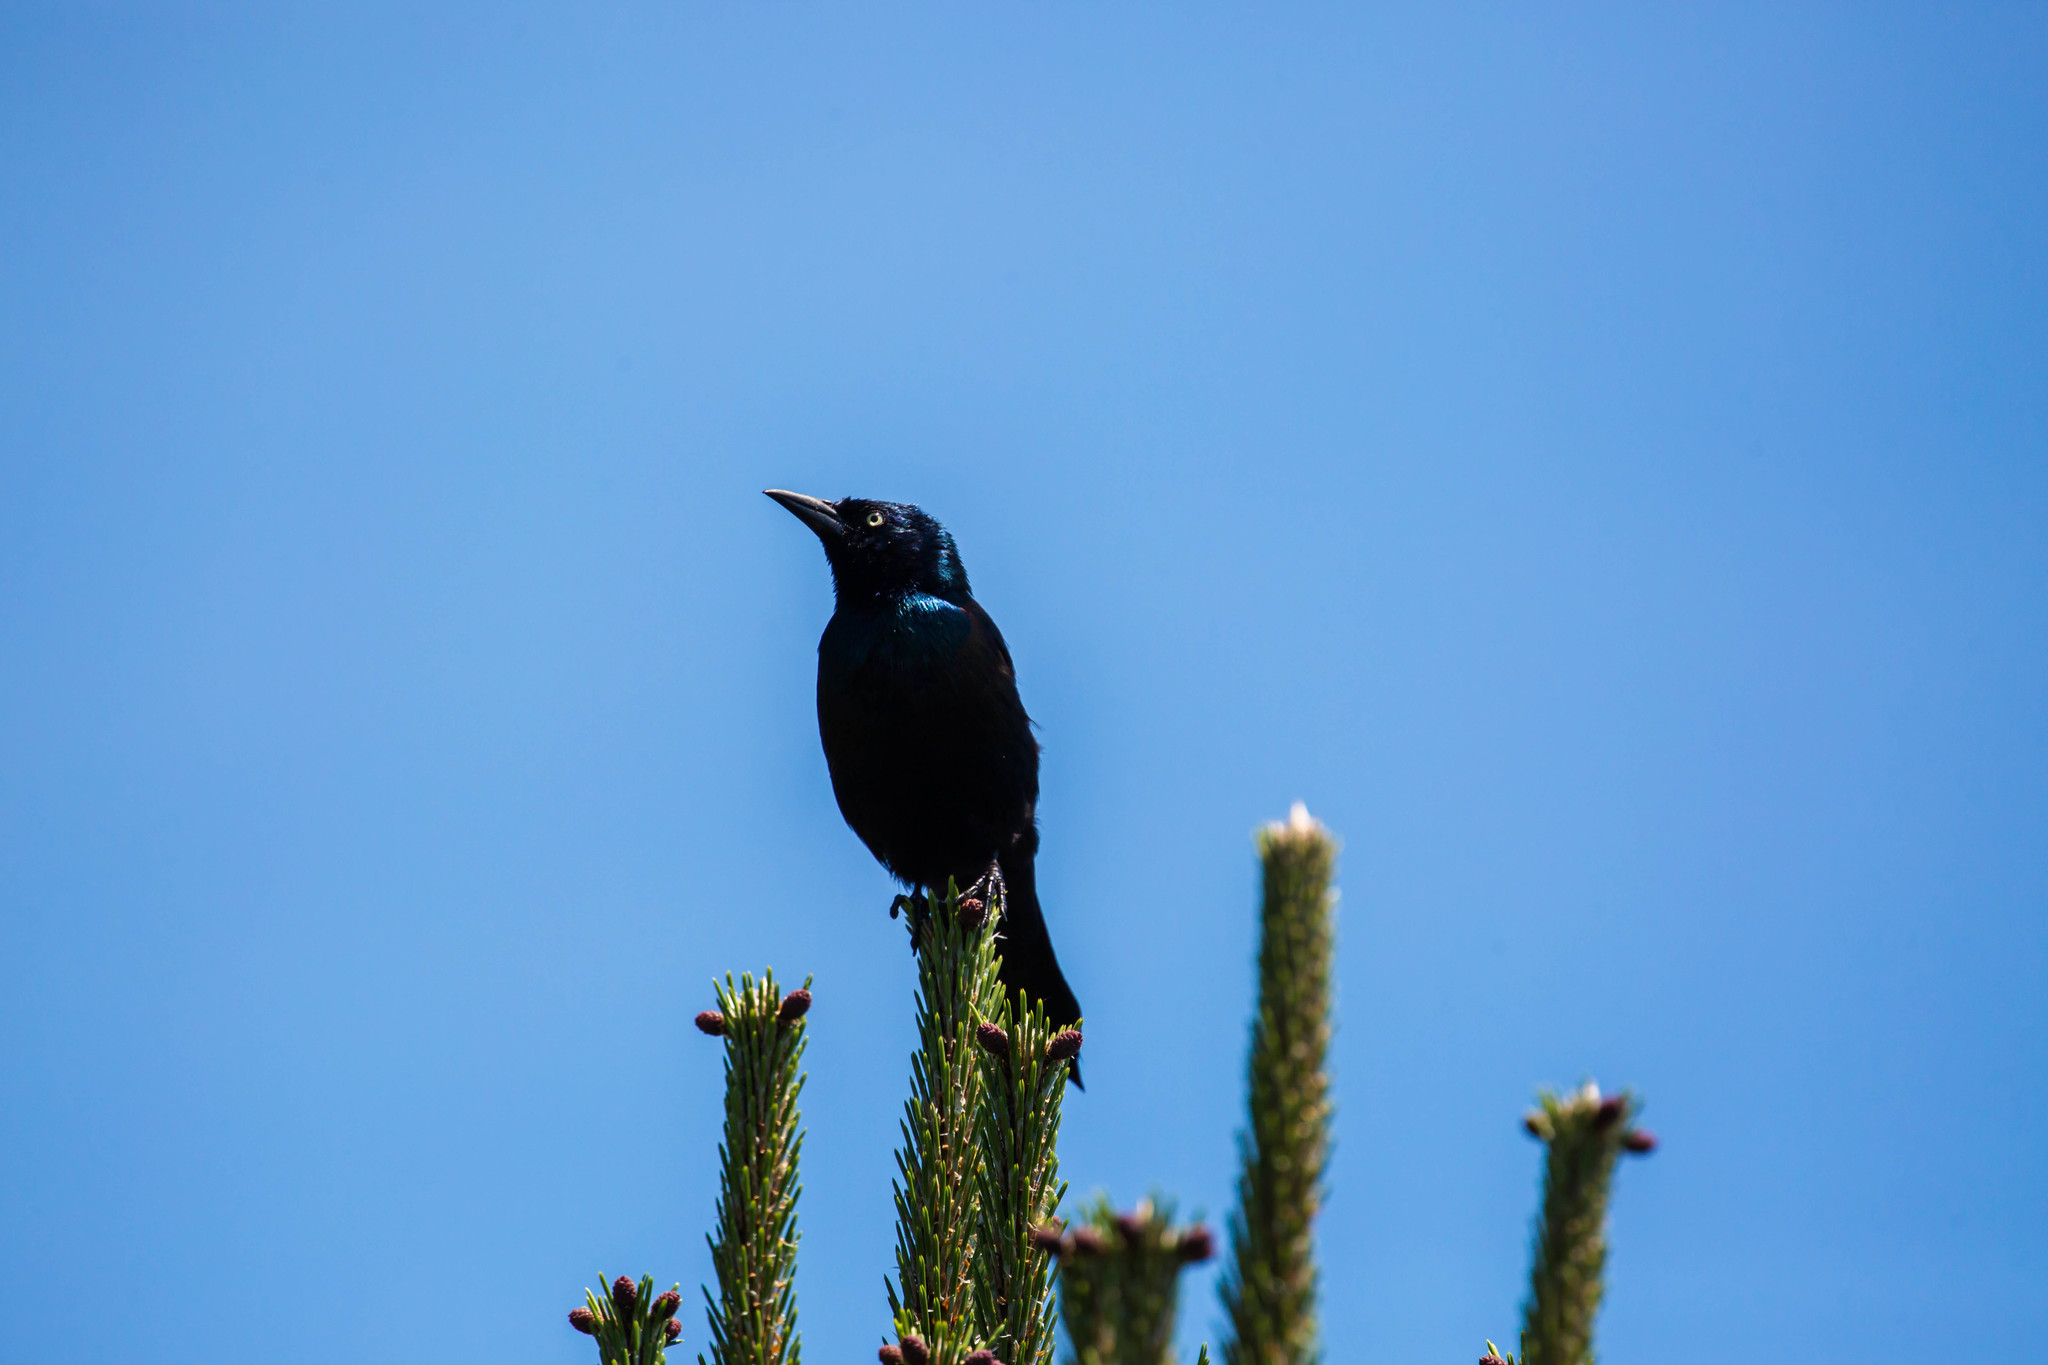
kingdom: Animalia
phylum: Chordata
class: Aves
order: Passeriformes
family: Icteridae
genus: Quiscalus
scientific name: Quiscalus quiscula
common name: Common grackle
